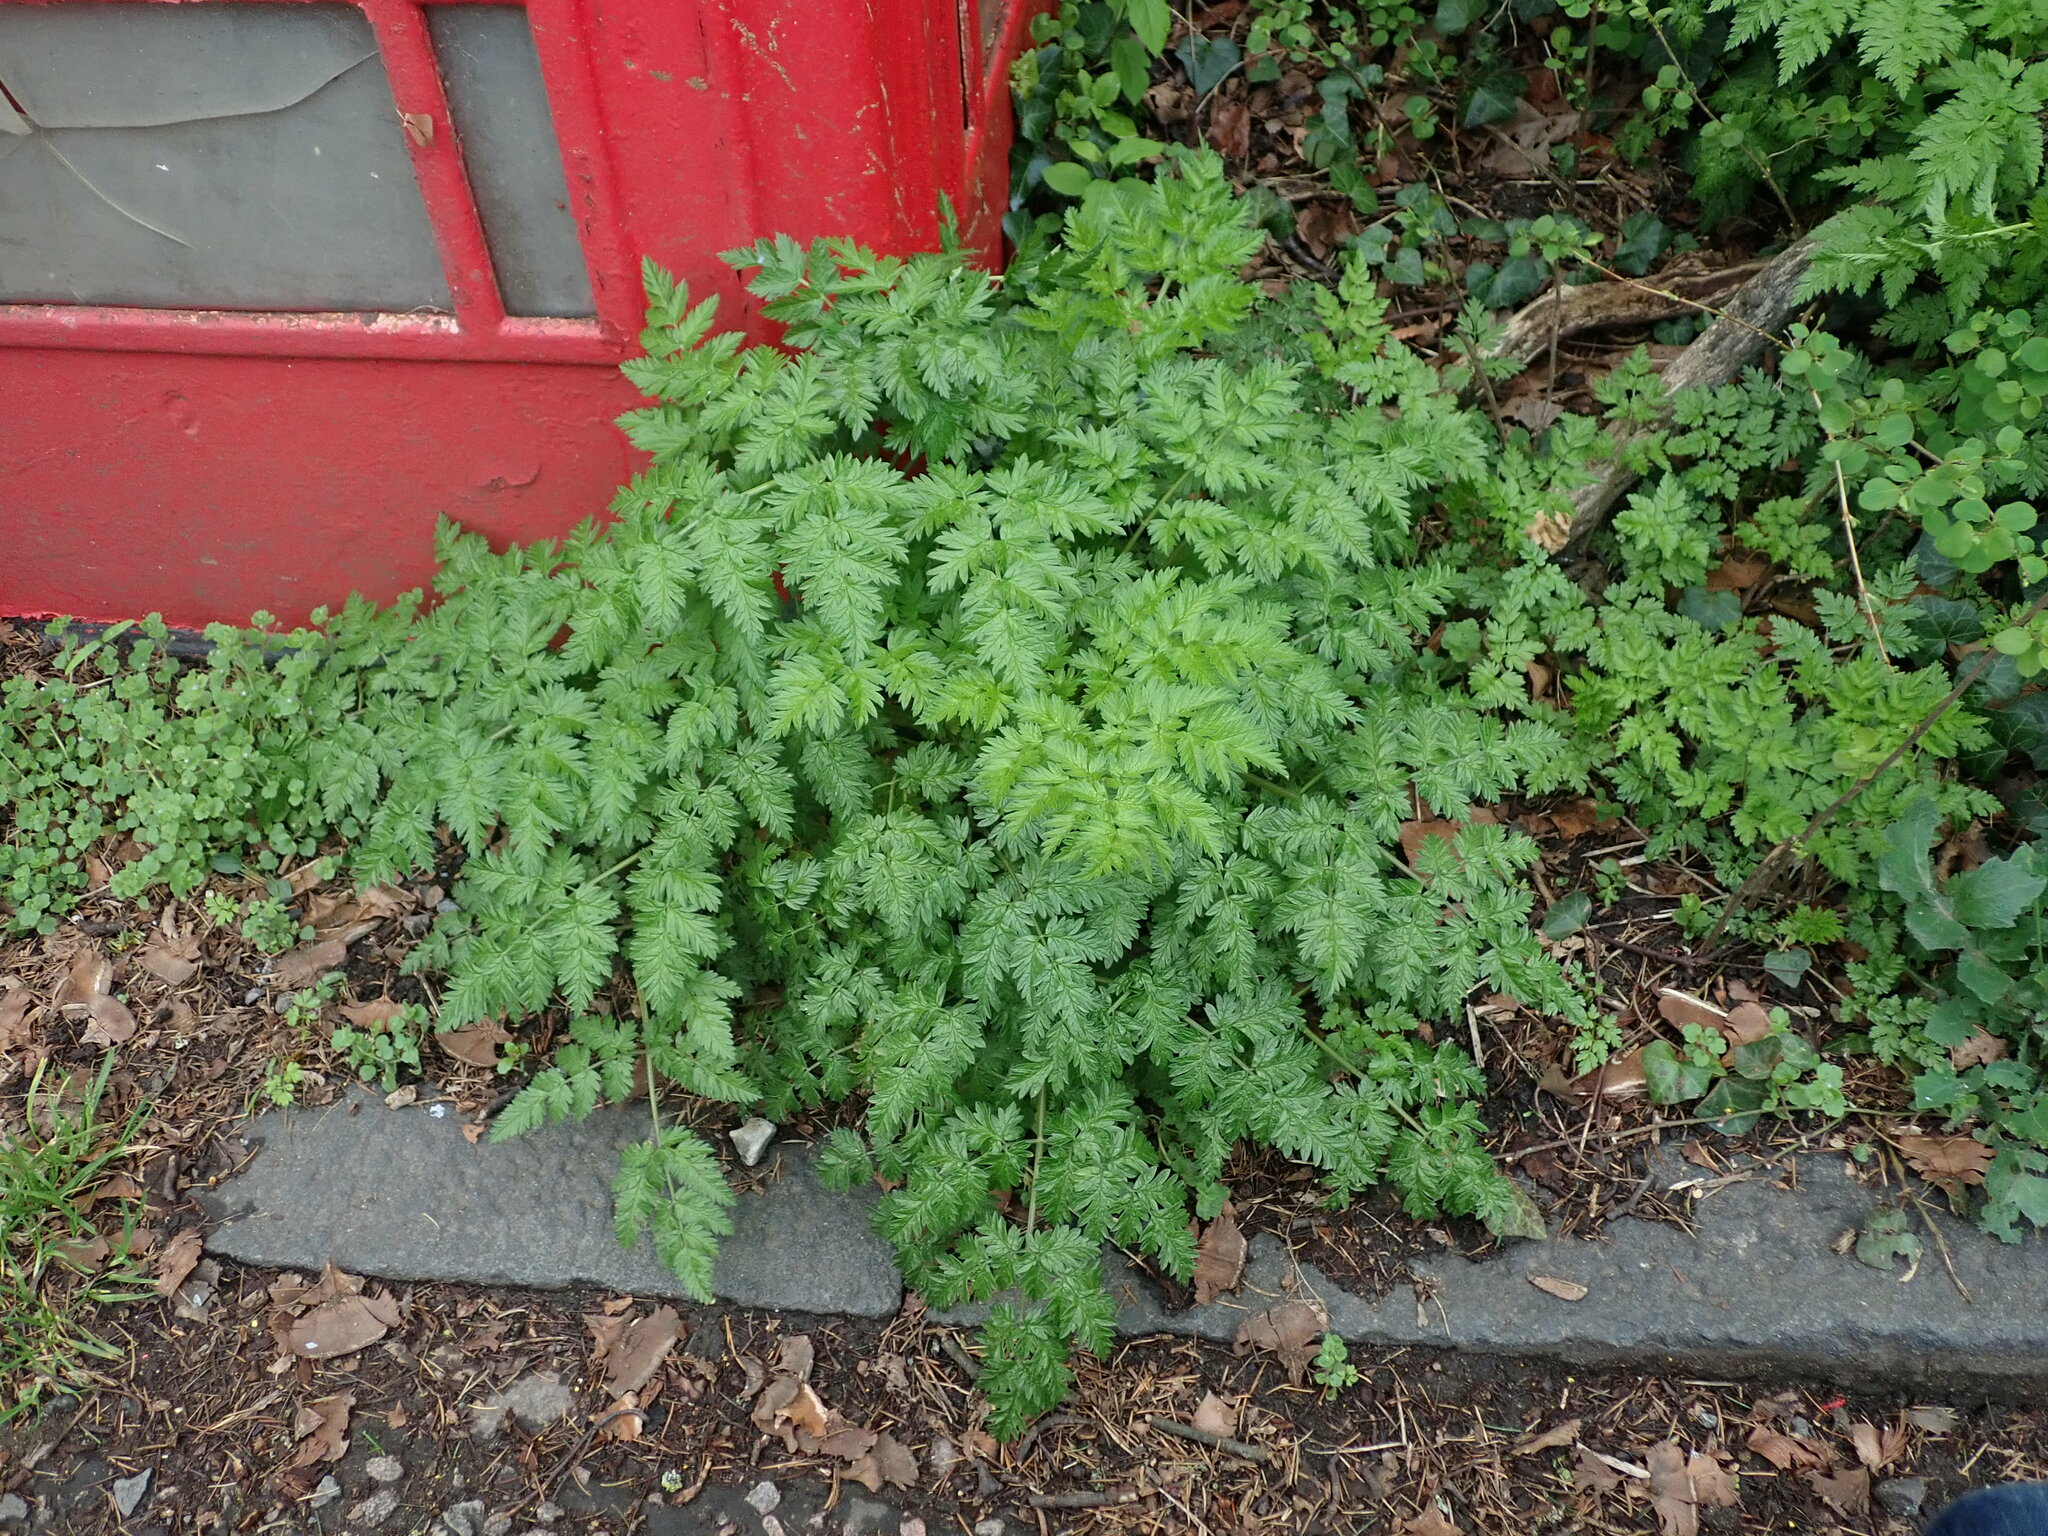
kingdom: Plantae
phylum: Tracheophyta
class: Magnoliopsida
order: Apiales
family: Apiaceae
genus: Anthriscus
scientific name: Anthriscus sylvestris
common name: Cow parsley
